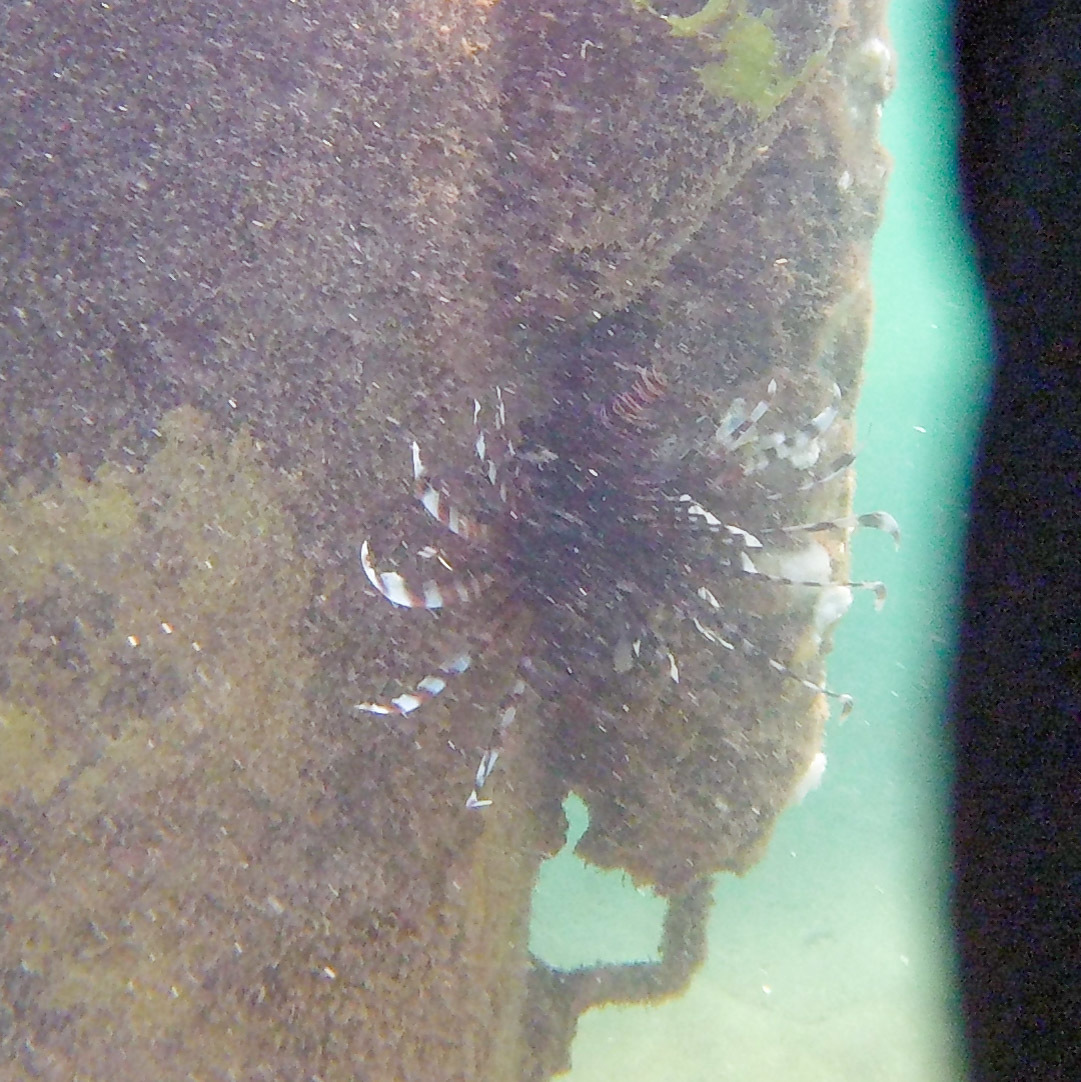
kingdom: Animalia
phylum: Chordata
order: Scorpaeniformes
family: Scorpaenidae
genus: Pterois
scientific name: Pterois volitans
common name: Lionfish
